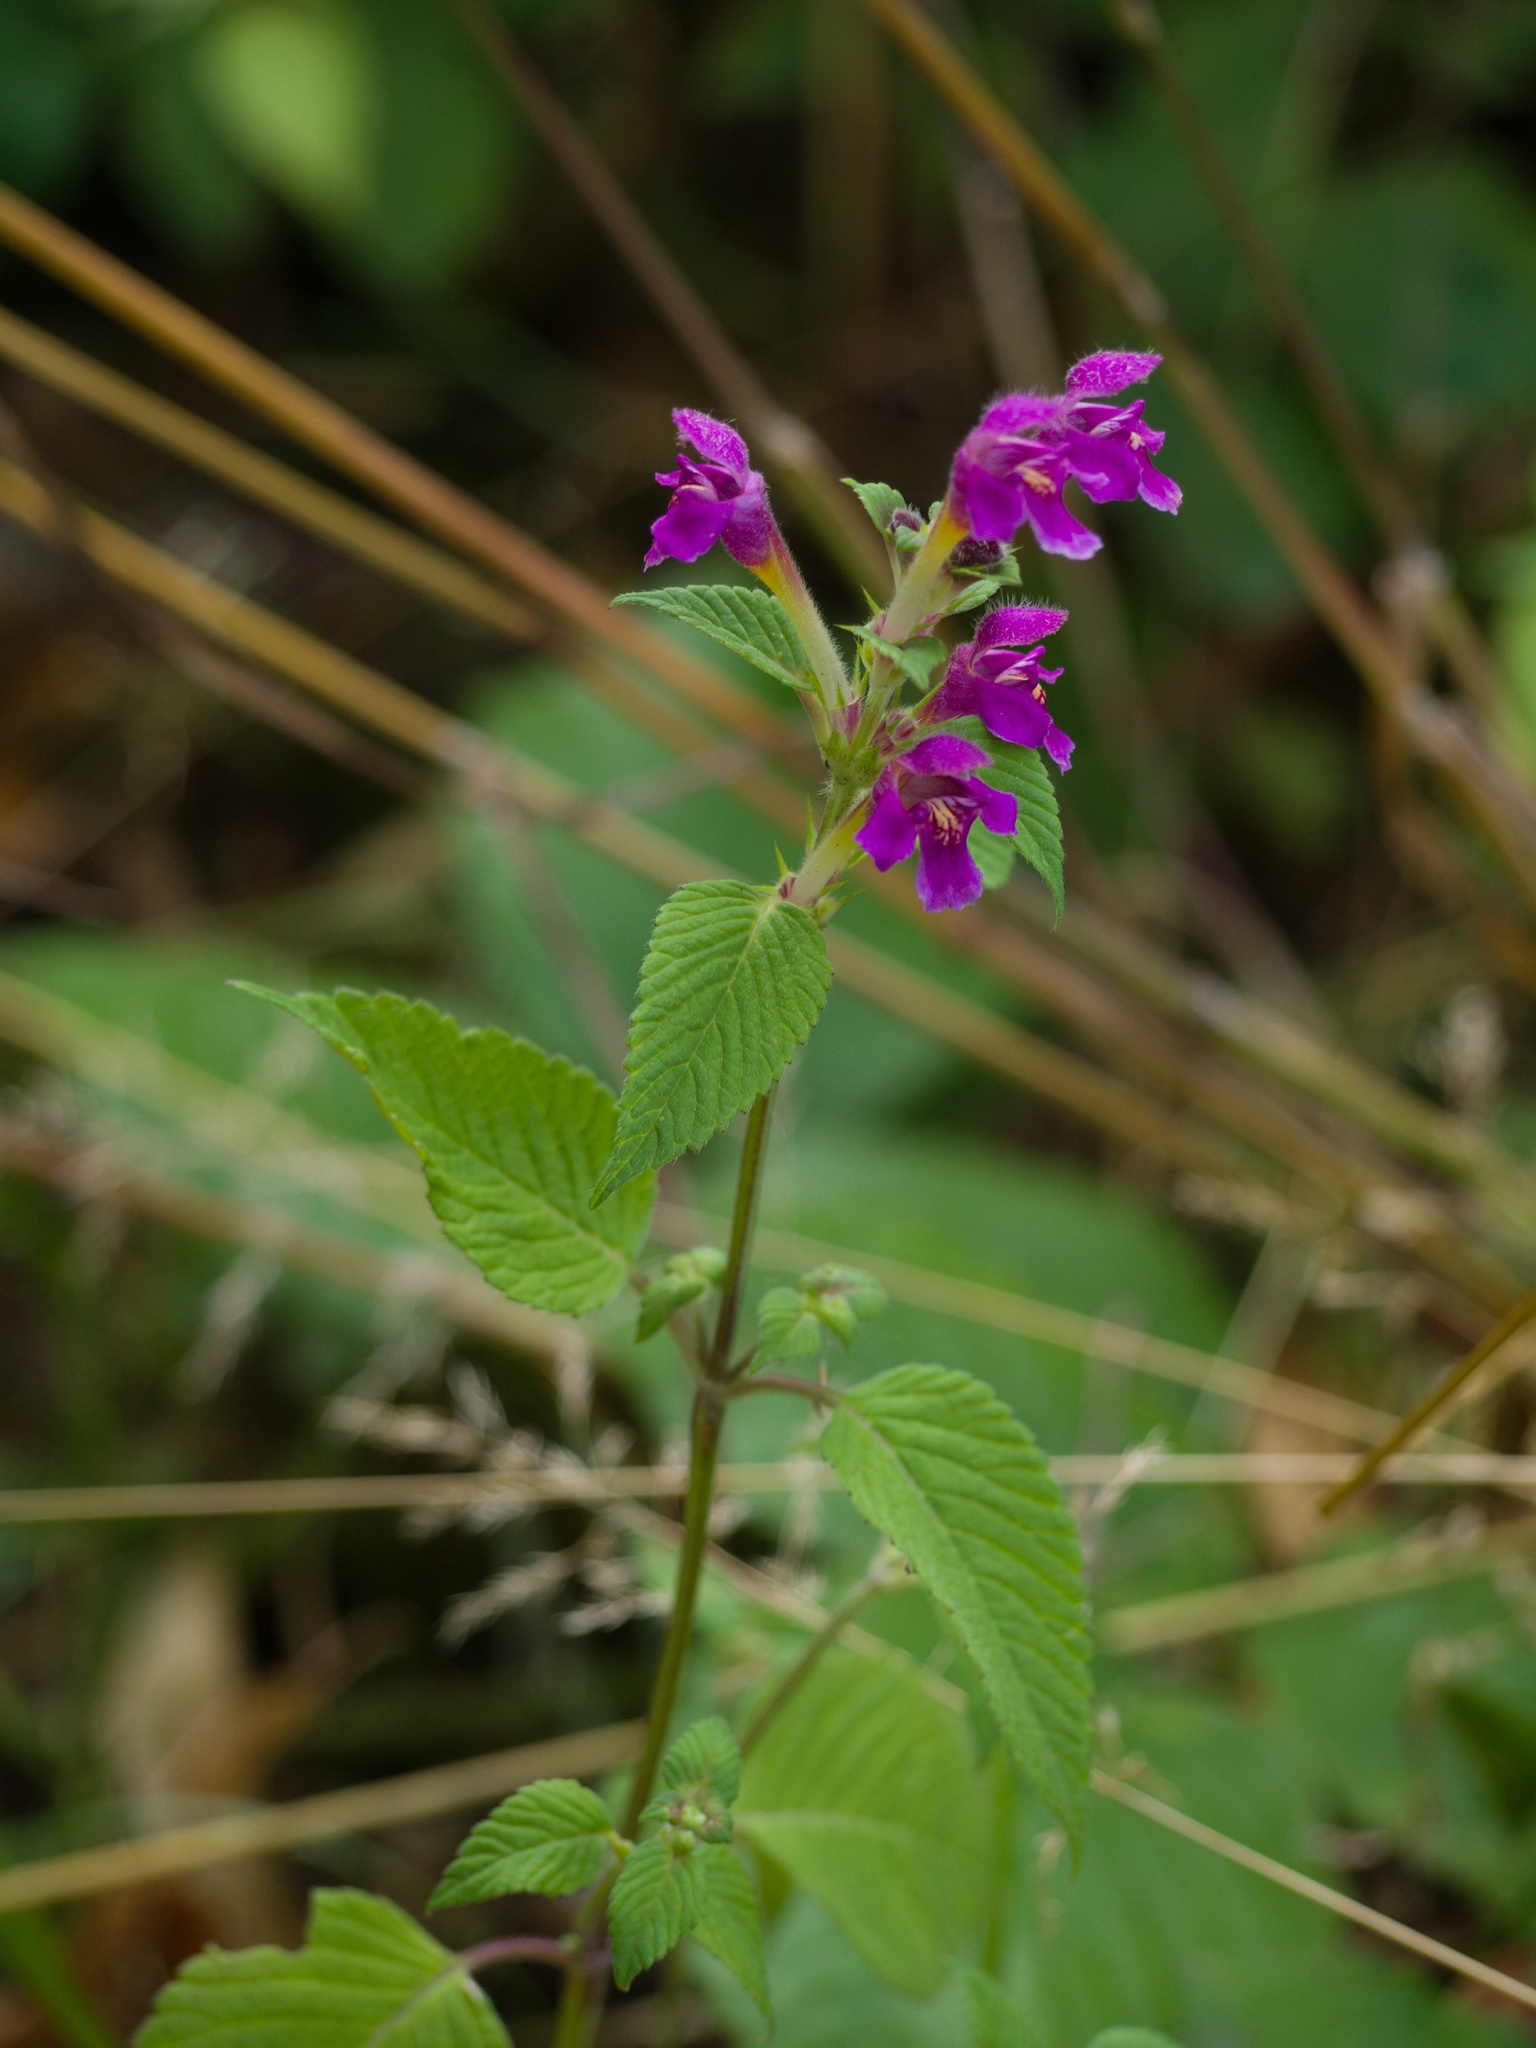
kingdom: Plantae
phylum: Tracheophyta
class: Magnoliopsida
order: Lamiales
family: Lamiaceae
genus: Galeopsis
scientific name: Galeopsis pubescens
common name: Downy hemp-nettle
